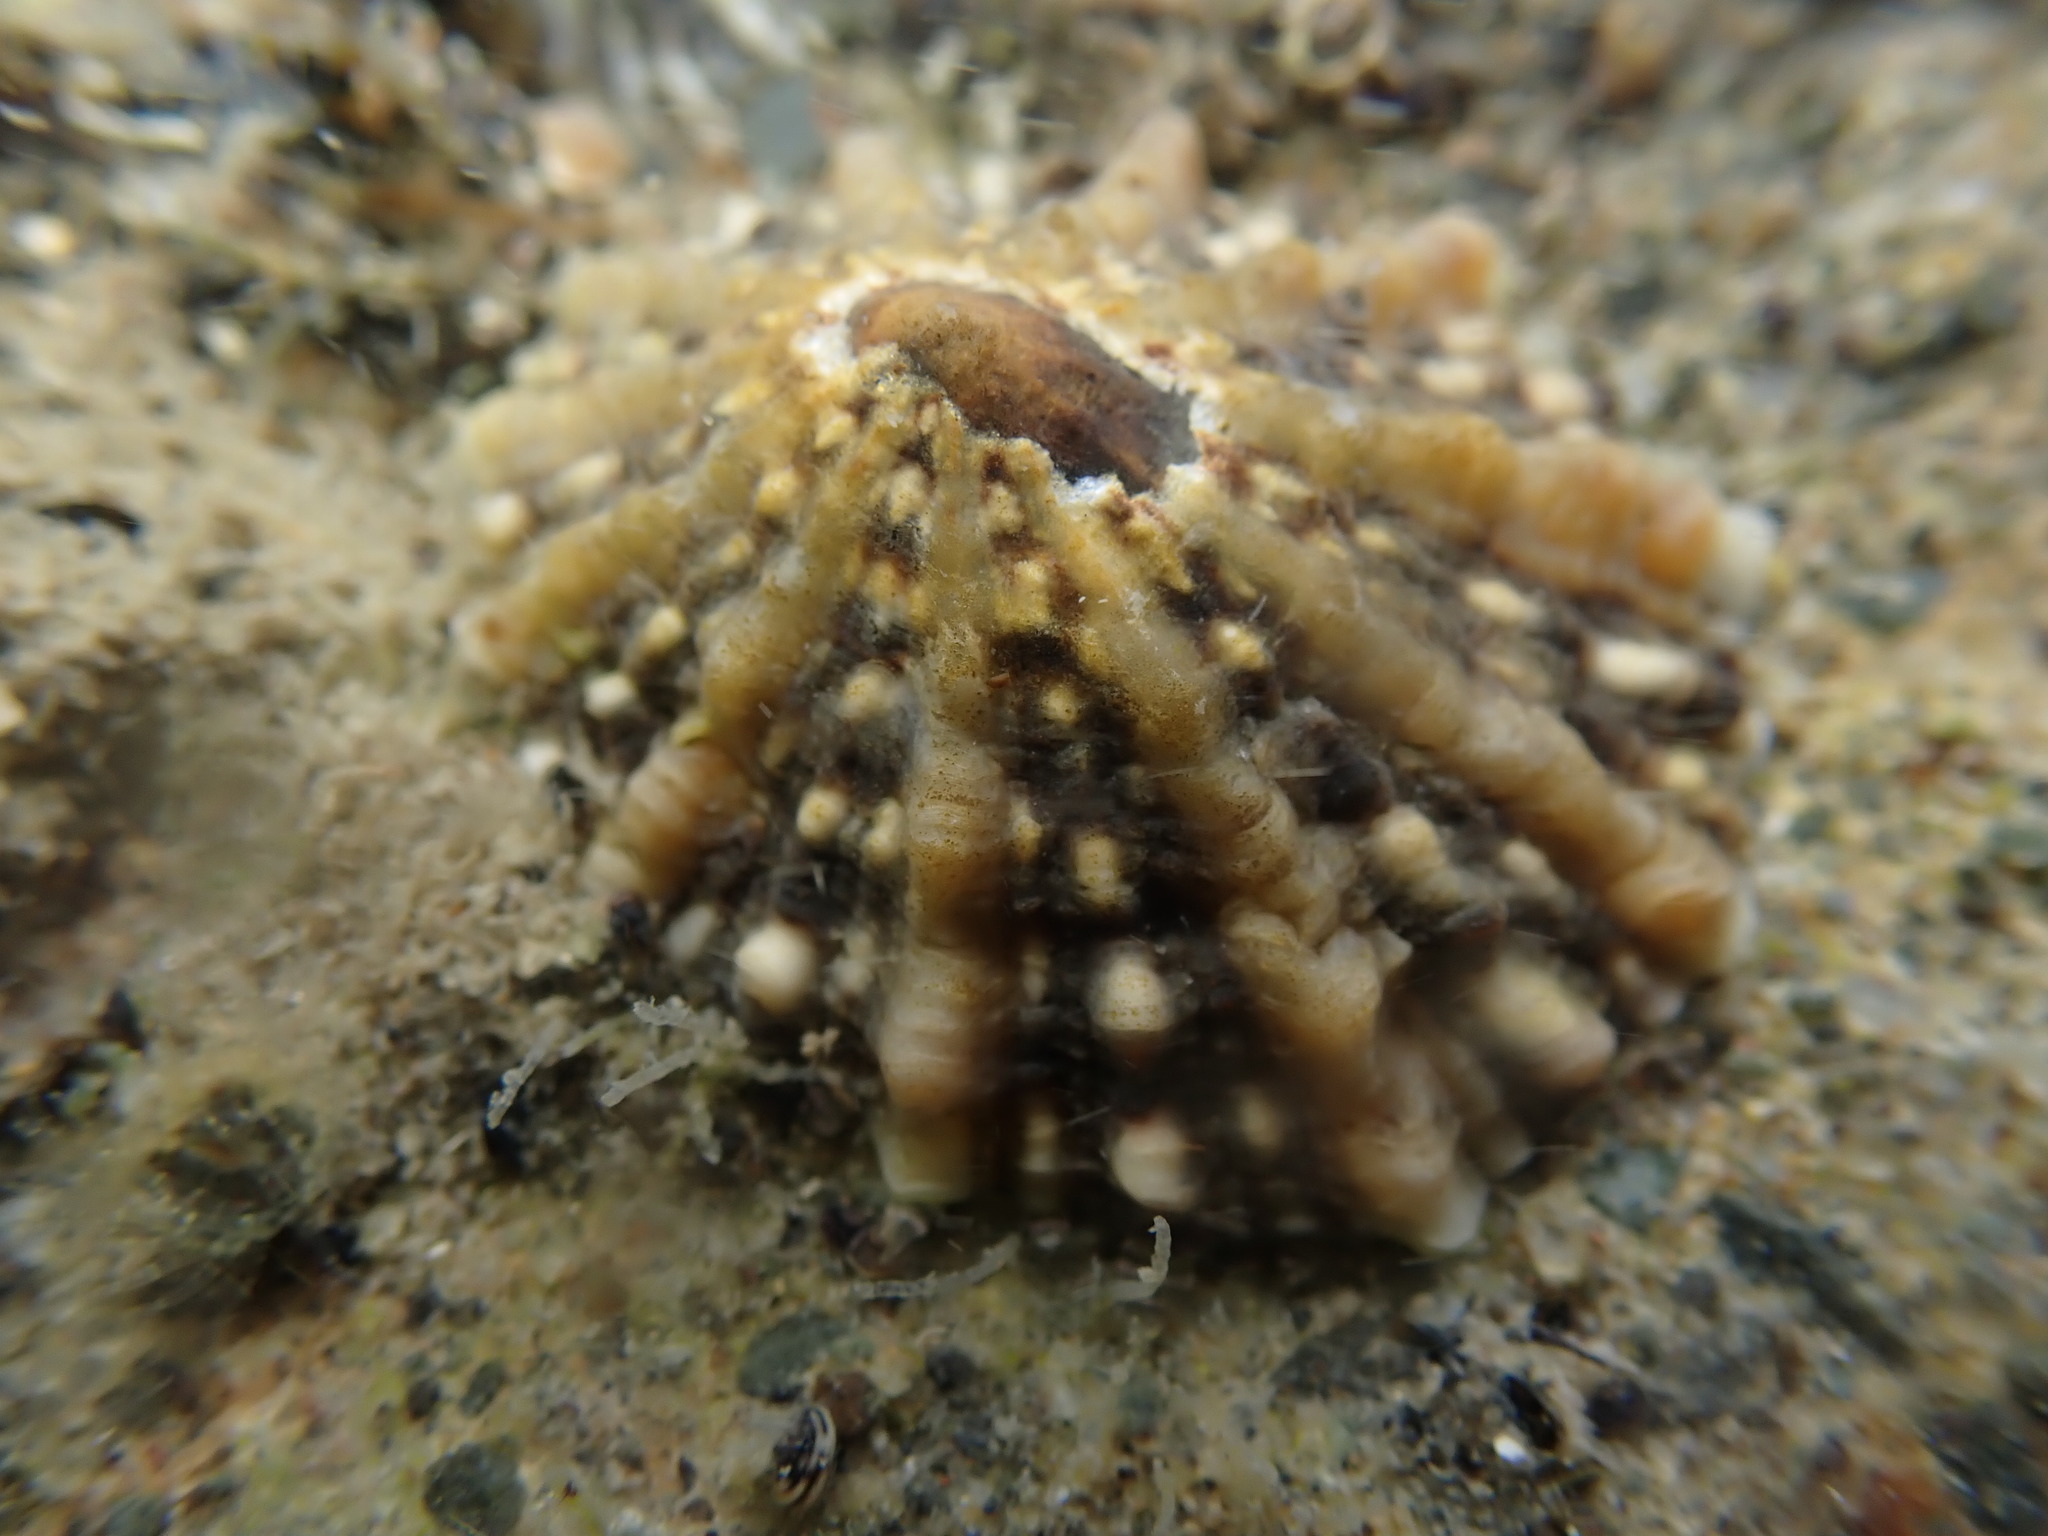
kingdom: Animalia
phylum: Mollusca
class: Gastropoda
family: Nacellidae
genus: Cellana
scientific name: Cellana ornata
